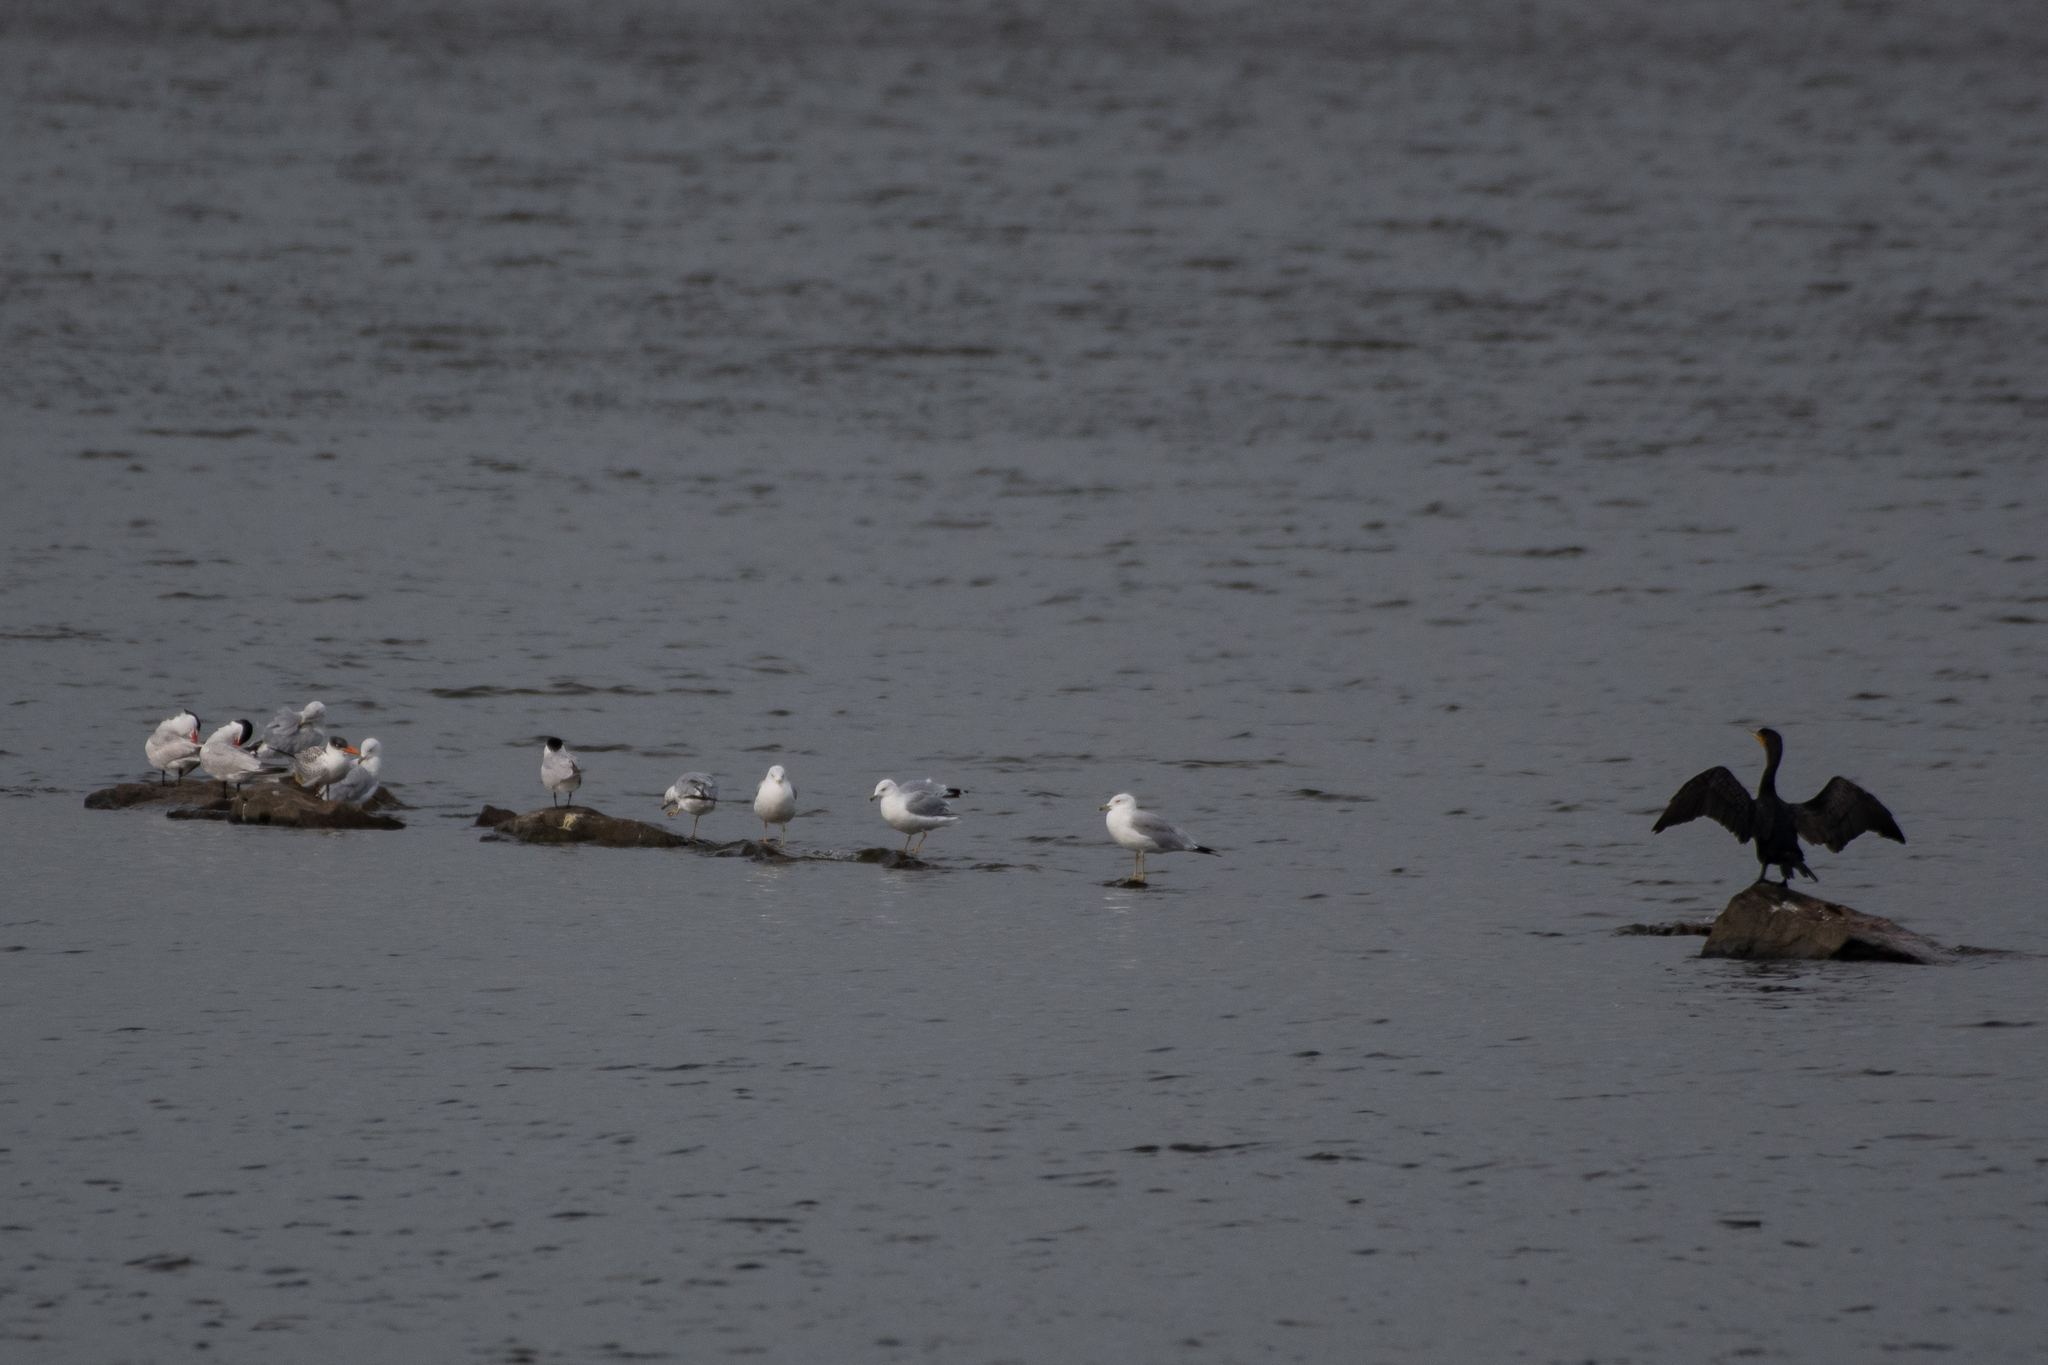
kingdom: Animalia
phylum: Chordata
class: Aves
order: Charadriiformes
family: Laridae
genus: Hydroprogne
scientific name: Hydroprogne caspia
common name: Caspian tern
